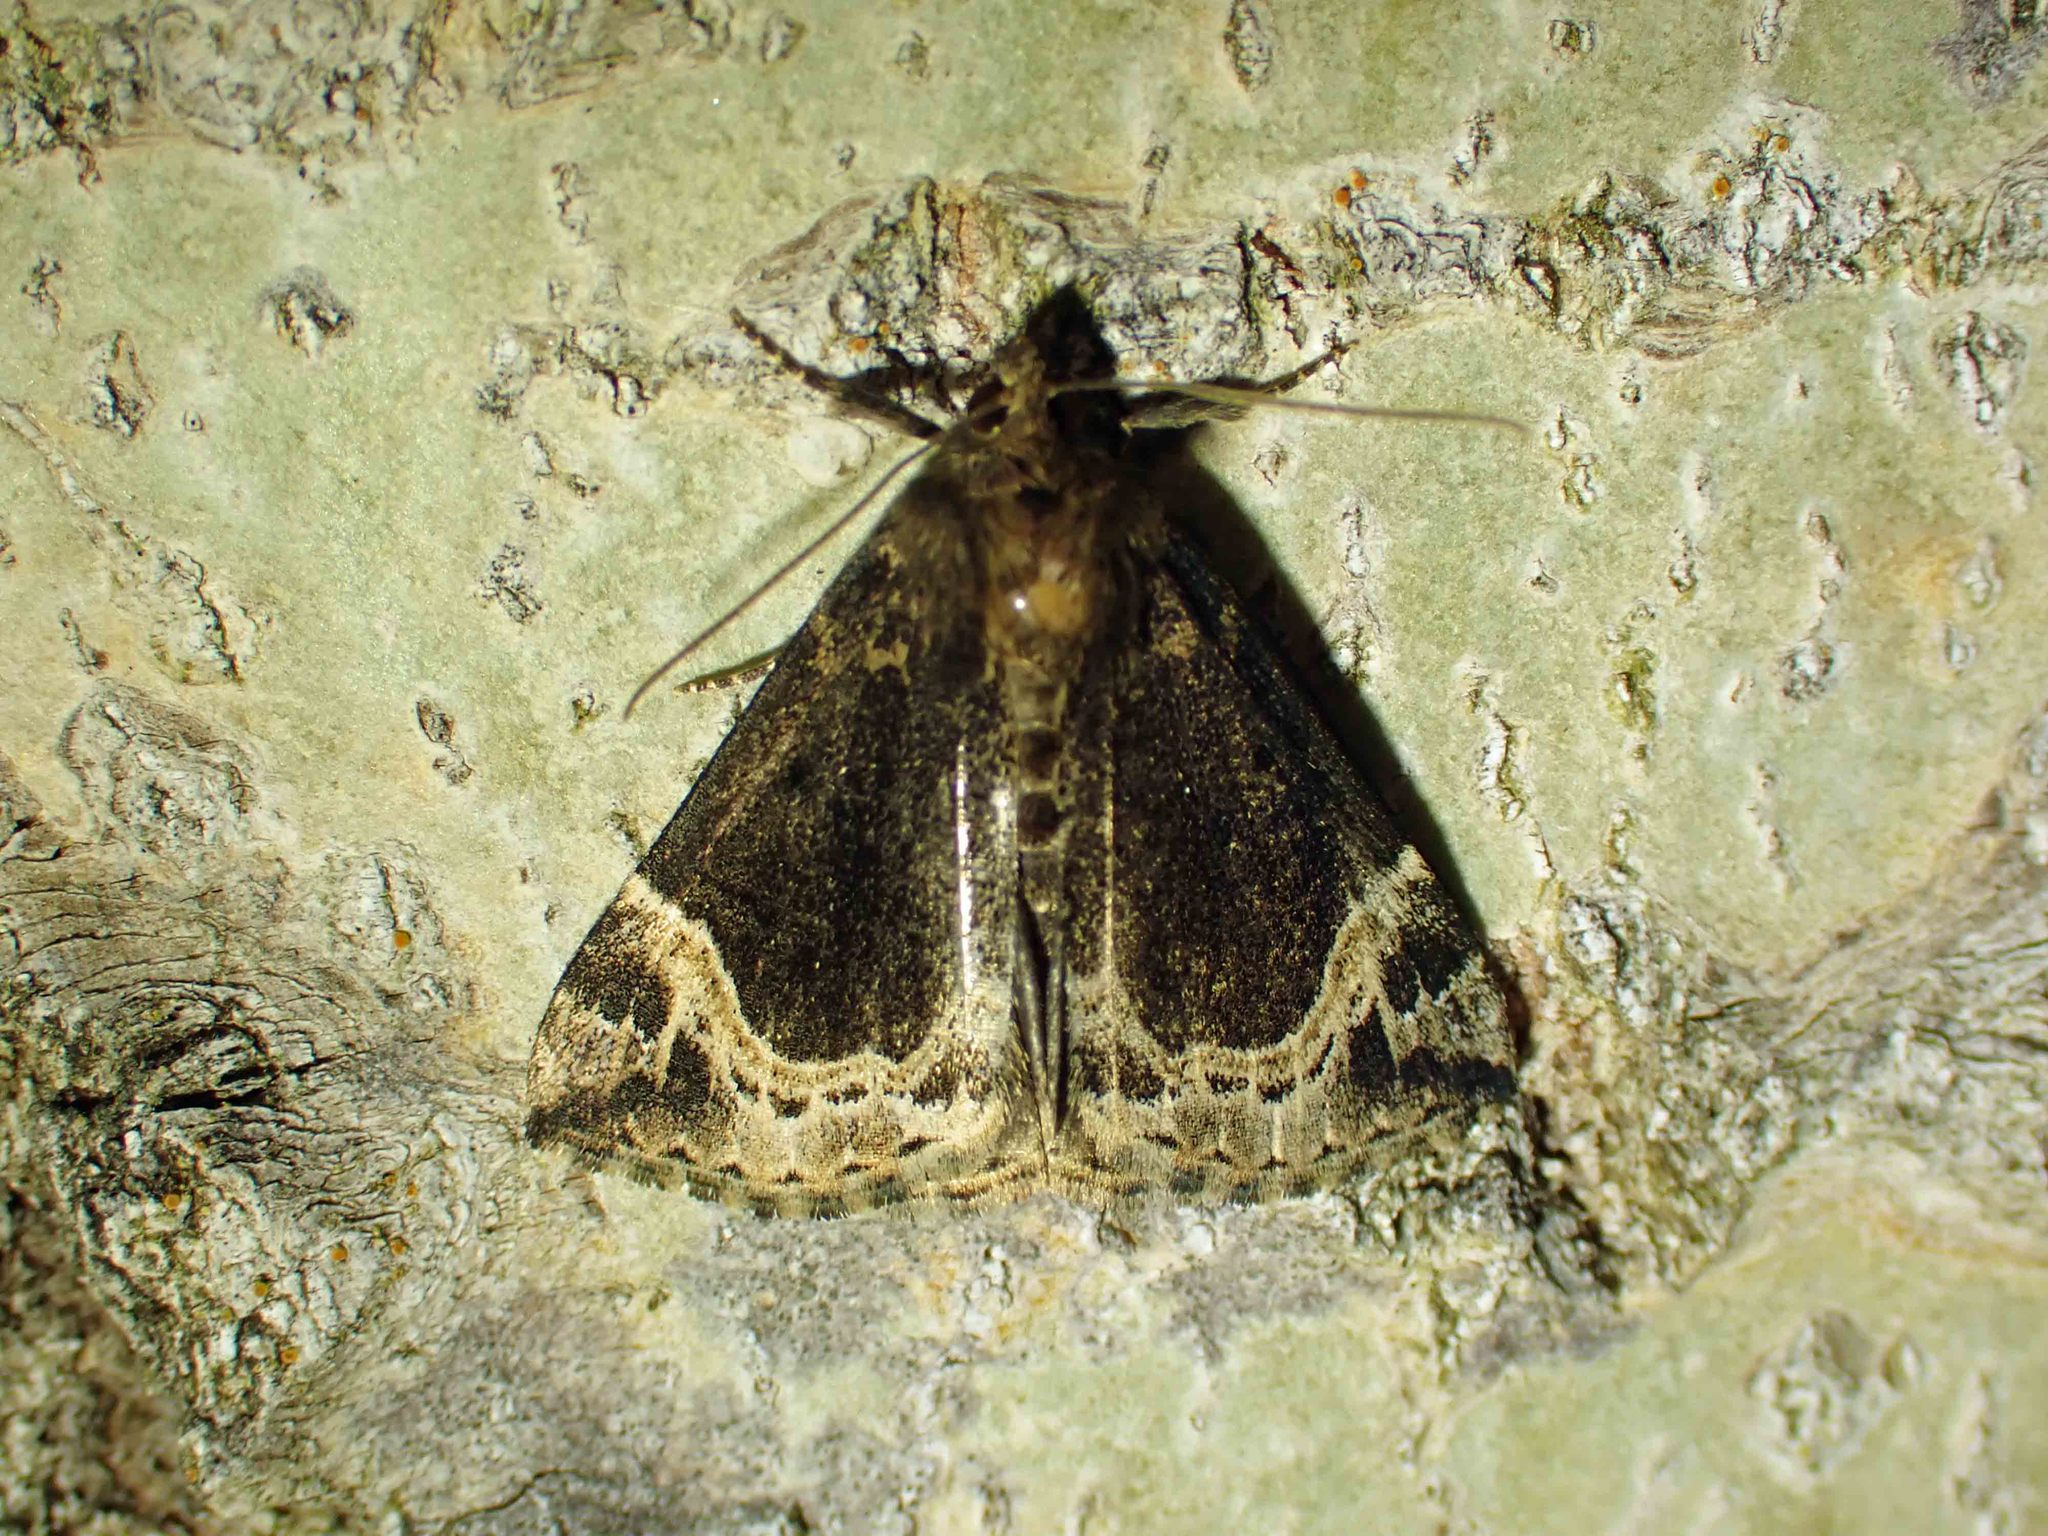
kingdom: Animalia
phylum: Arthropoda
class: Insecta
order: Lepidoptera
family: Erebidae
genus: Hypena
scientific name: Hypena abalienalis
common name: White-lined snout
